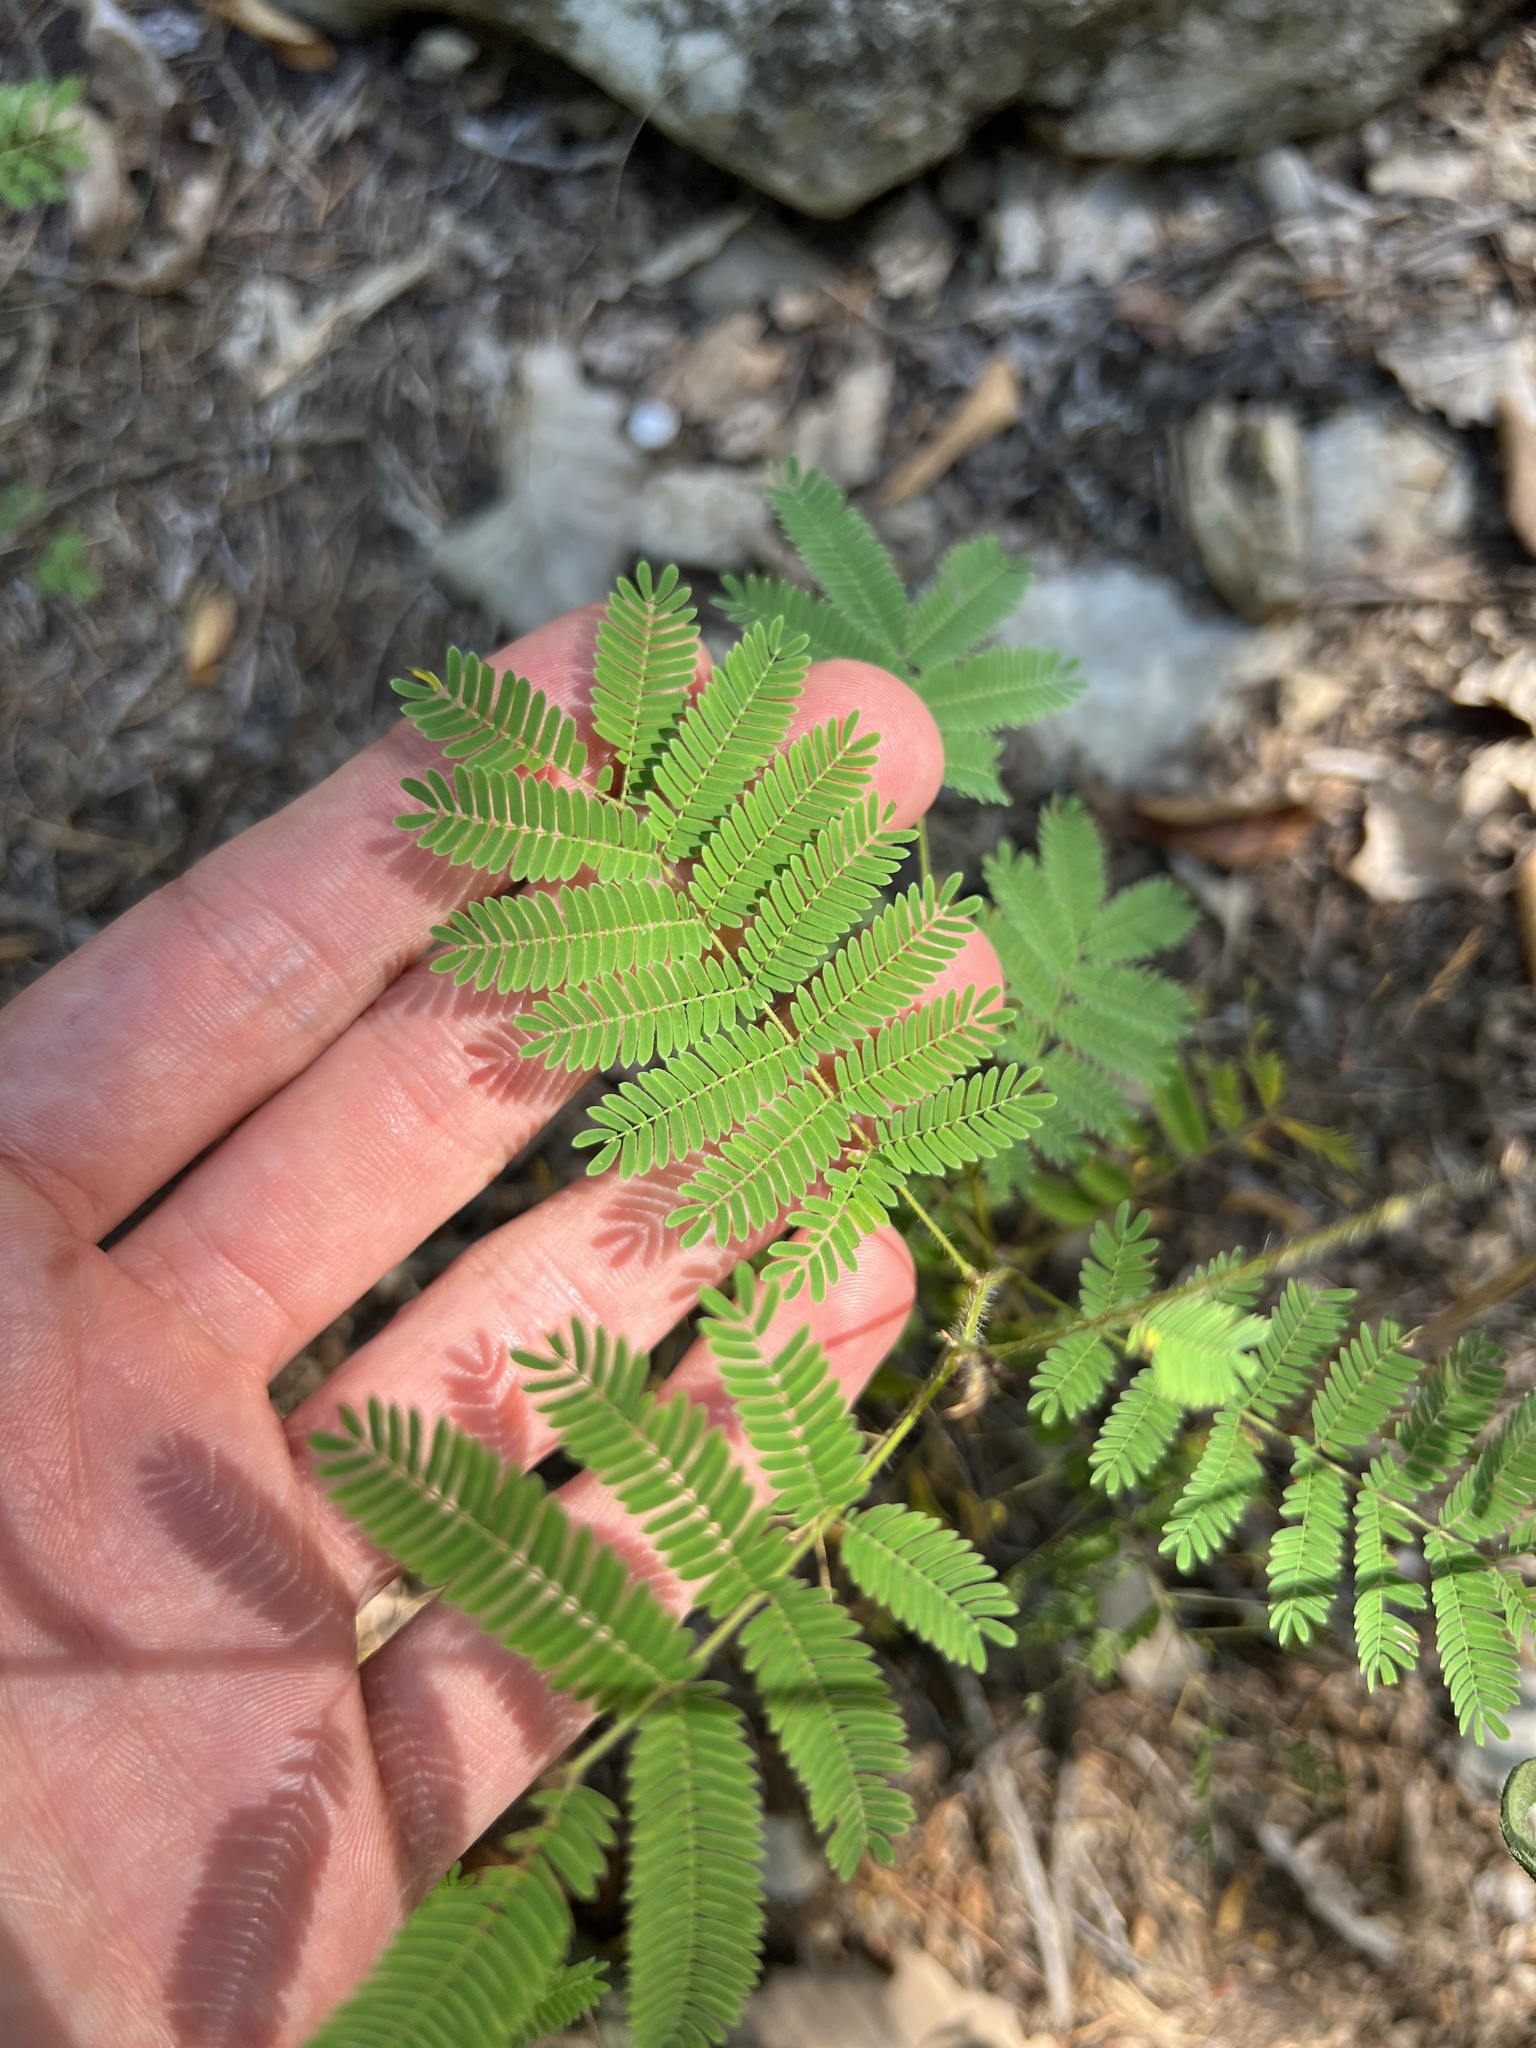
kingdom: Plantae
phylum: Tracheophyta
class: Magnoliopsida
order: Fabales
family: Fabaceae
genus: Acaciella
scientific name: Acaciella angustissima
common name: Prairie acacia
